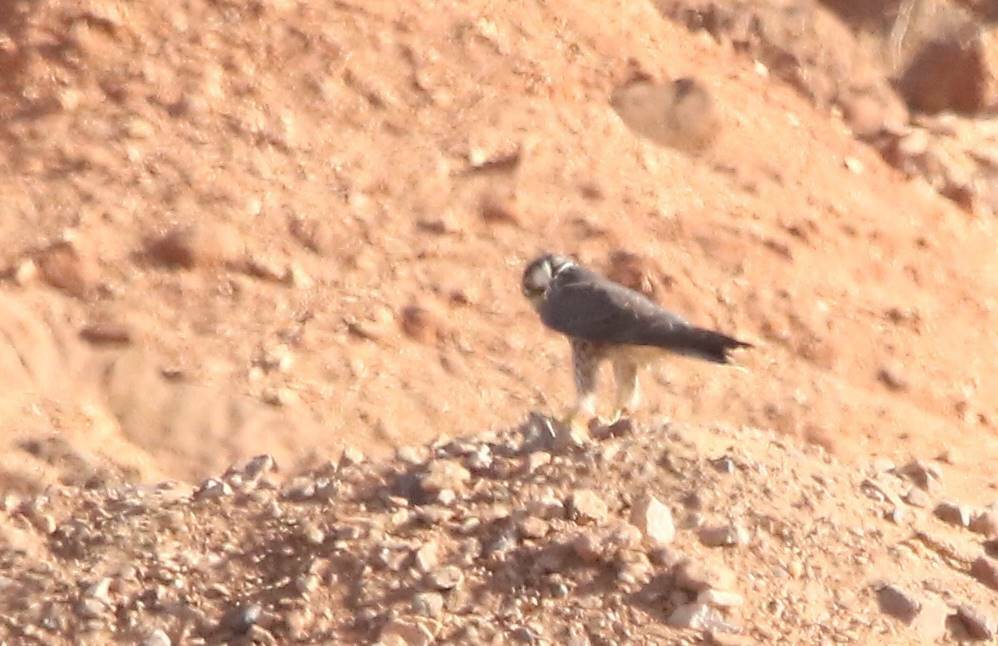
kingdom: Animalia
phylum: Chordata
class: Aves
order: Falconiformes
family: Falconidae
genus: Falco
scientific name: Falco biarmicus
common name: Lanner falcon
